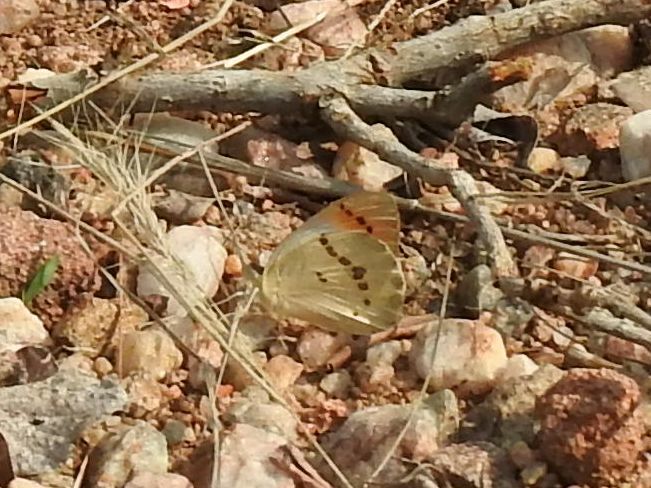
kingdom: Animalia
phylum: Arthropoda
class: Insecta
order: Lepidoptera
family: Pieridae
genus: Colotis
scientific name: Colotis annae
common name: Scarlet tip
